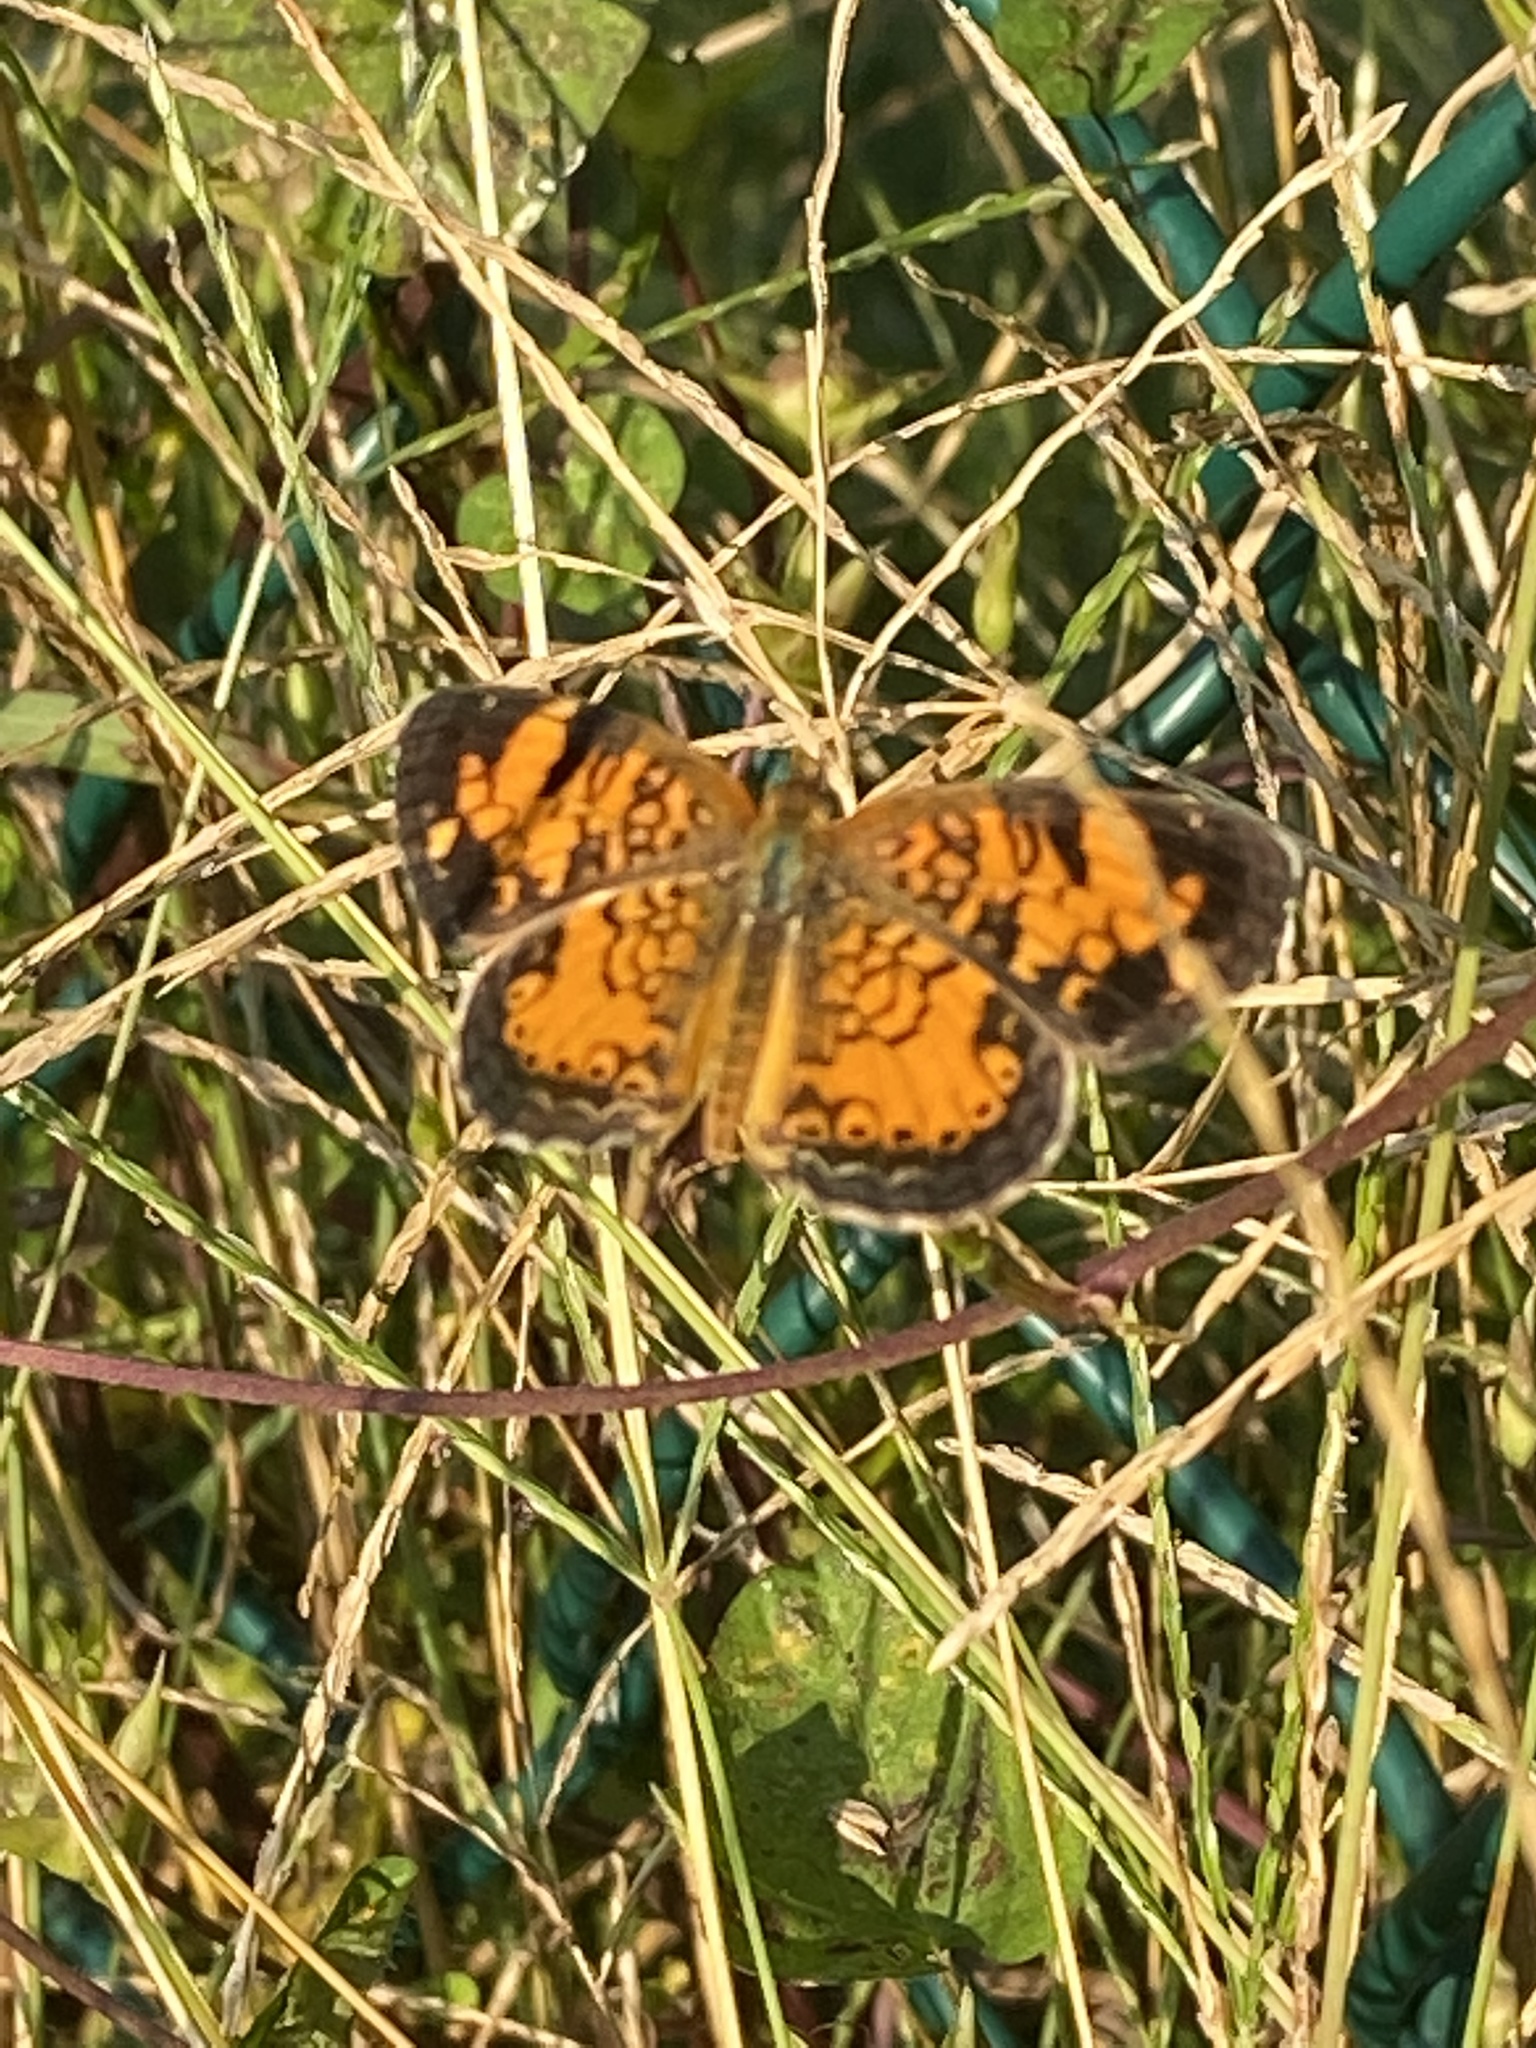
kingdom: Animalia
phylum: Arthropoda
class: Insecta
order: Lepidoptera
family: Nymphalidae
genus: Phyciodes
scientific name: Phyciodes tharos
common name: Pearl crescent
